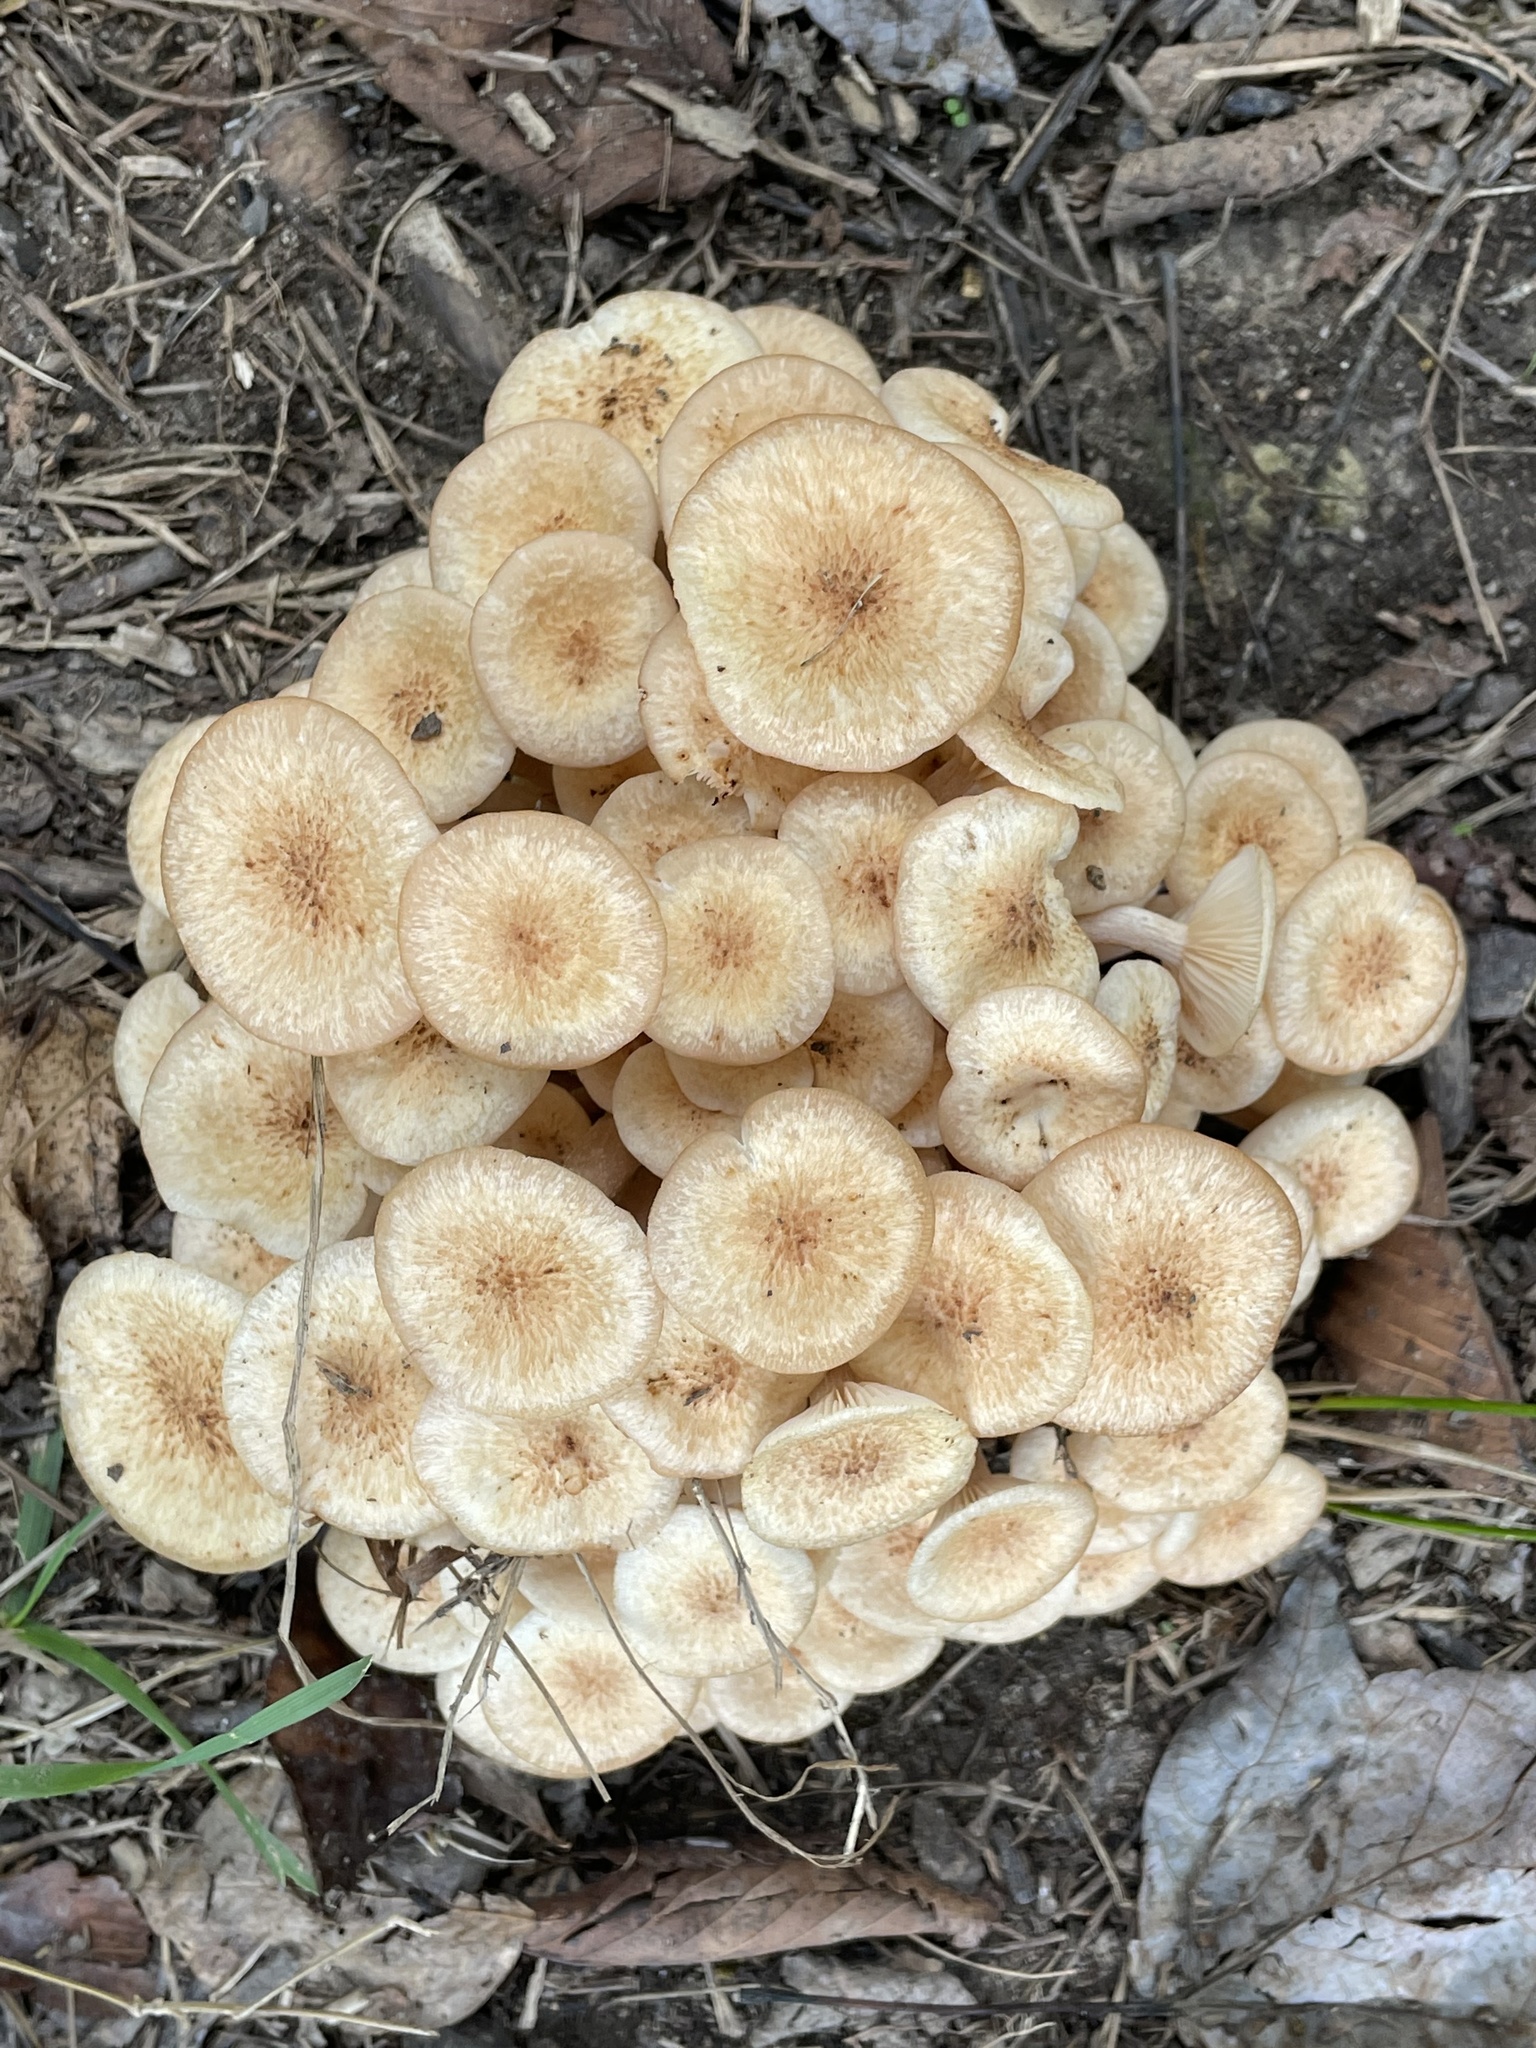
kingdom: Fungi
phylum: Basidiomycota
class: Agaricomycetes
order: Agaricales
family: Physalacriaceae
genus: Desarmillaria
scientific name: Desarmillaria caespitosa
